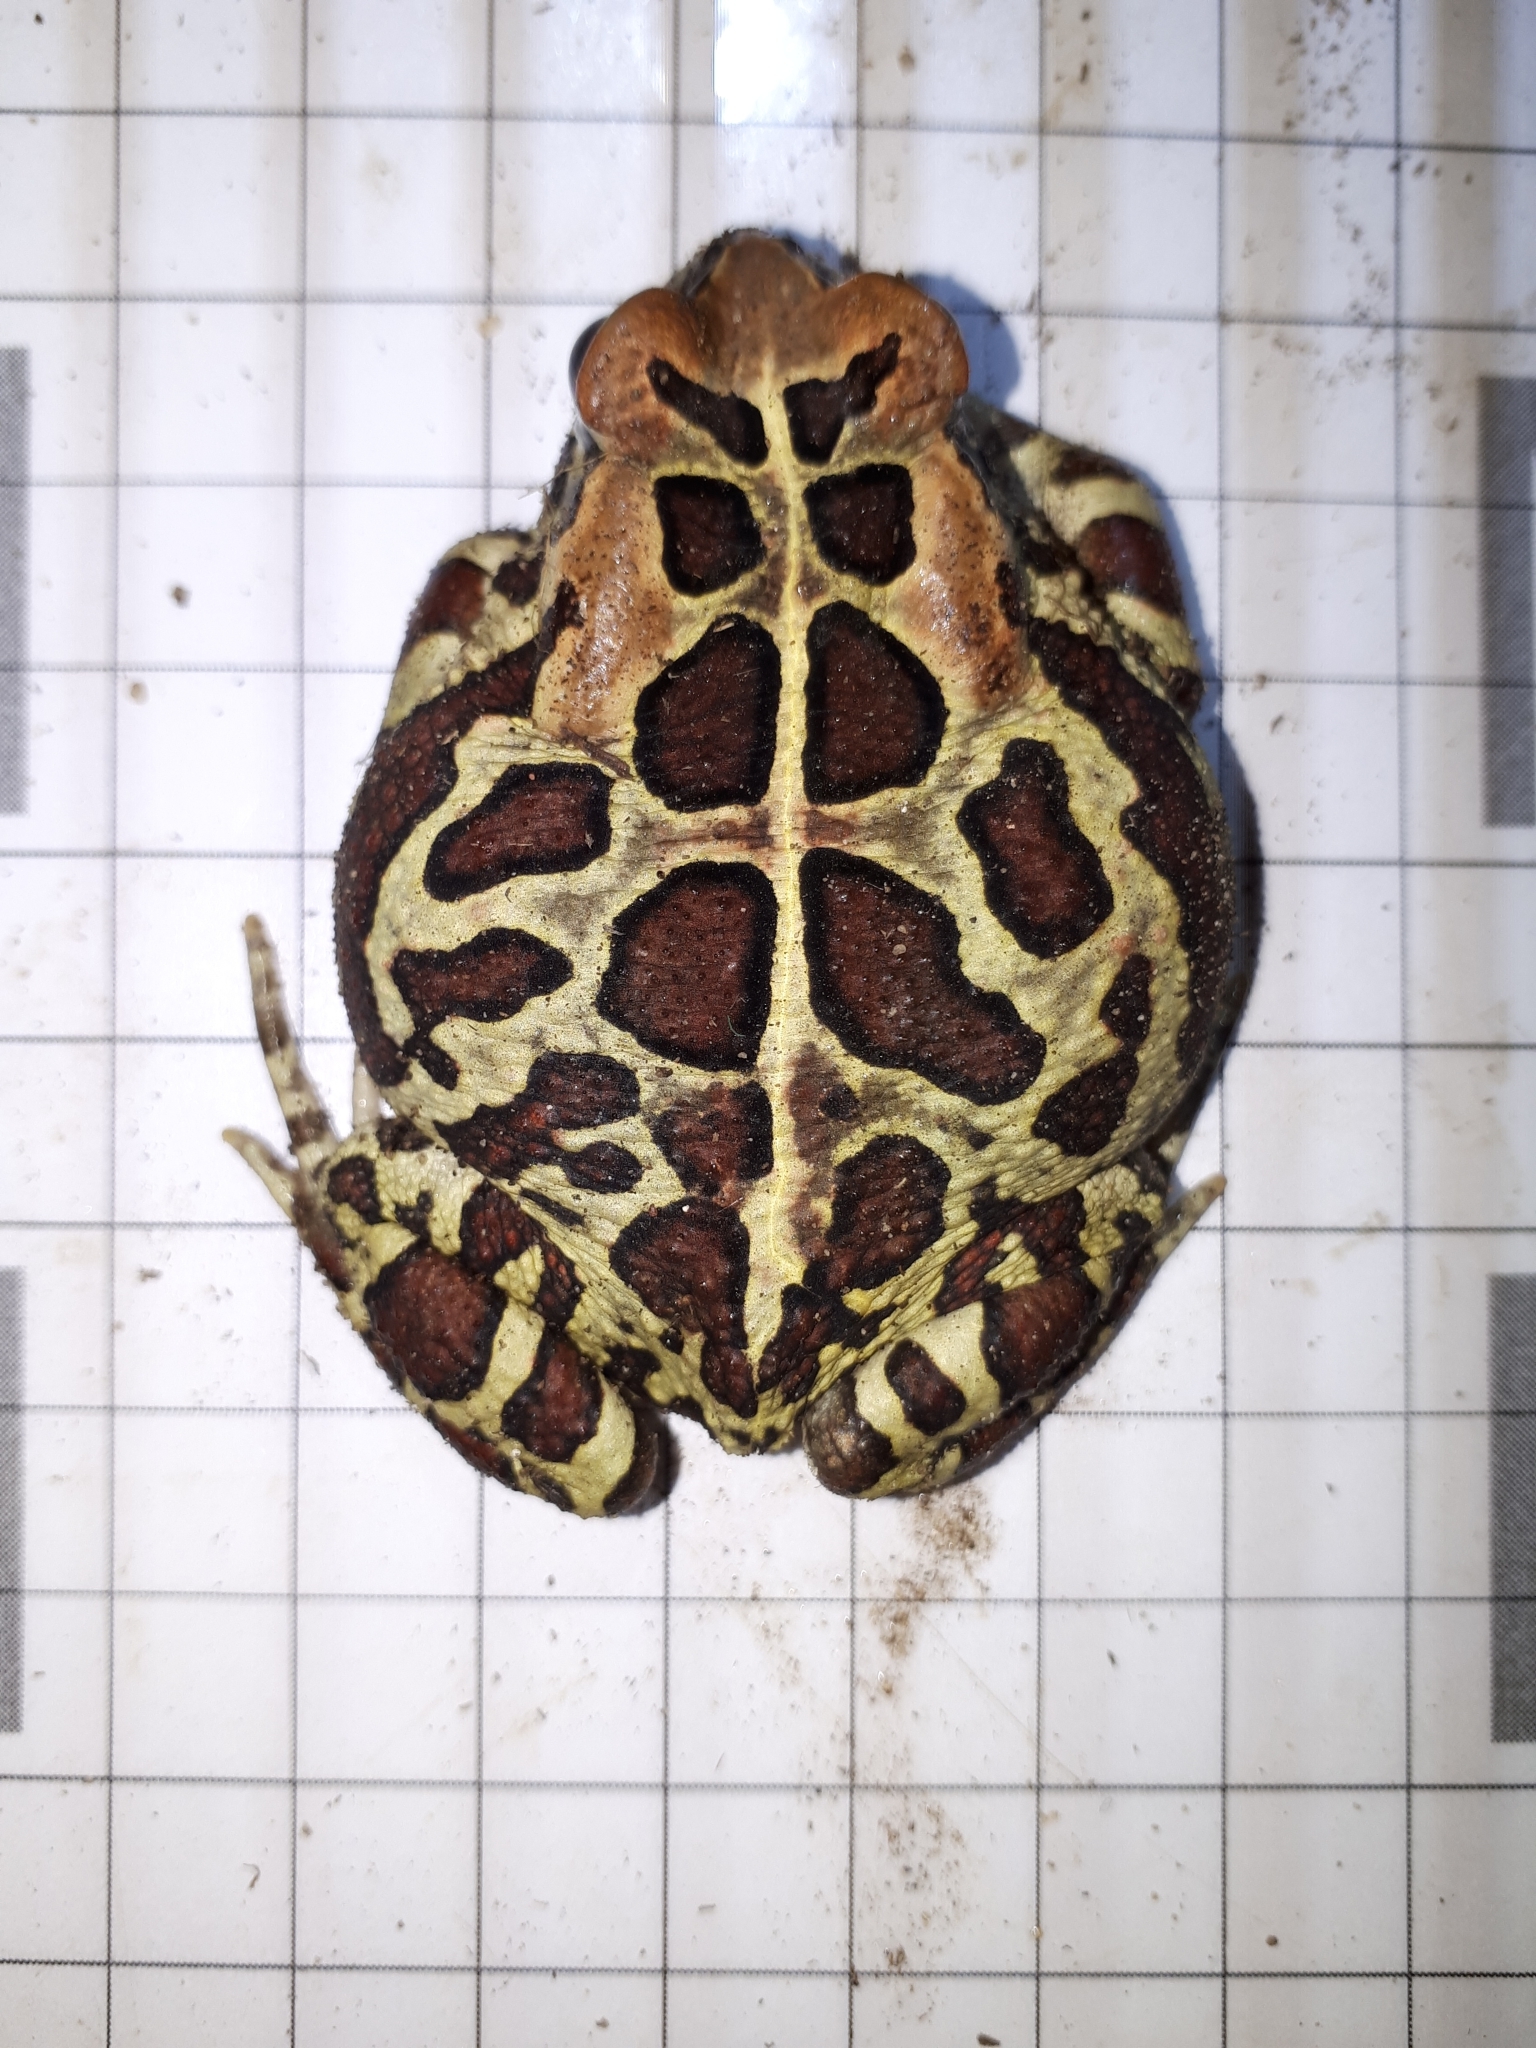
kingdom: Animalia
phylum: Chordata
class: Amphibia
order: Anura
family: Bufonidae
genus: Sclerophrys
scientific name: Sclerophrys pantherina
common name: Panther toad
